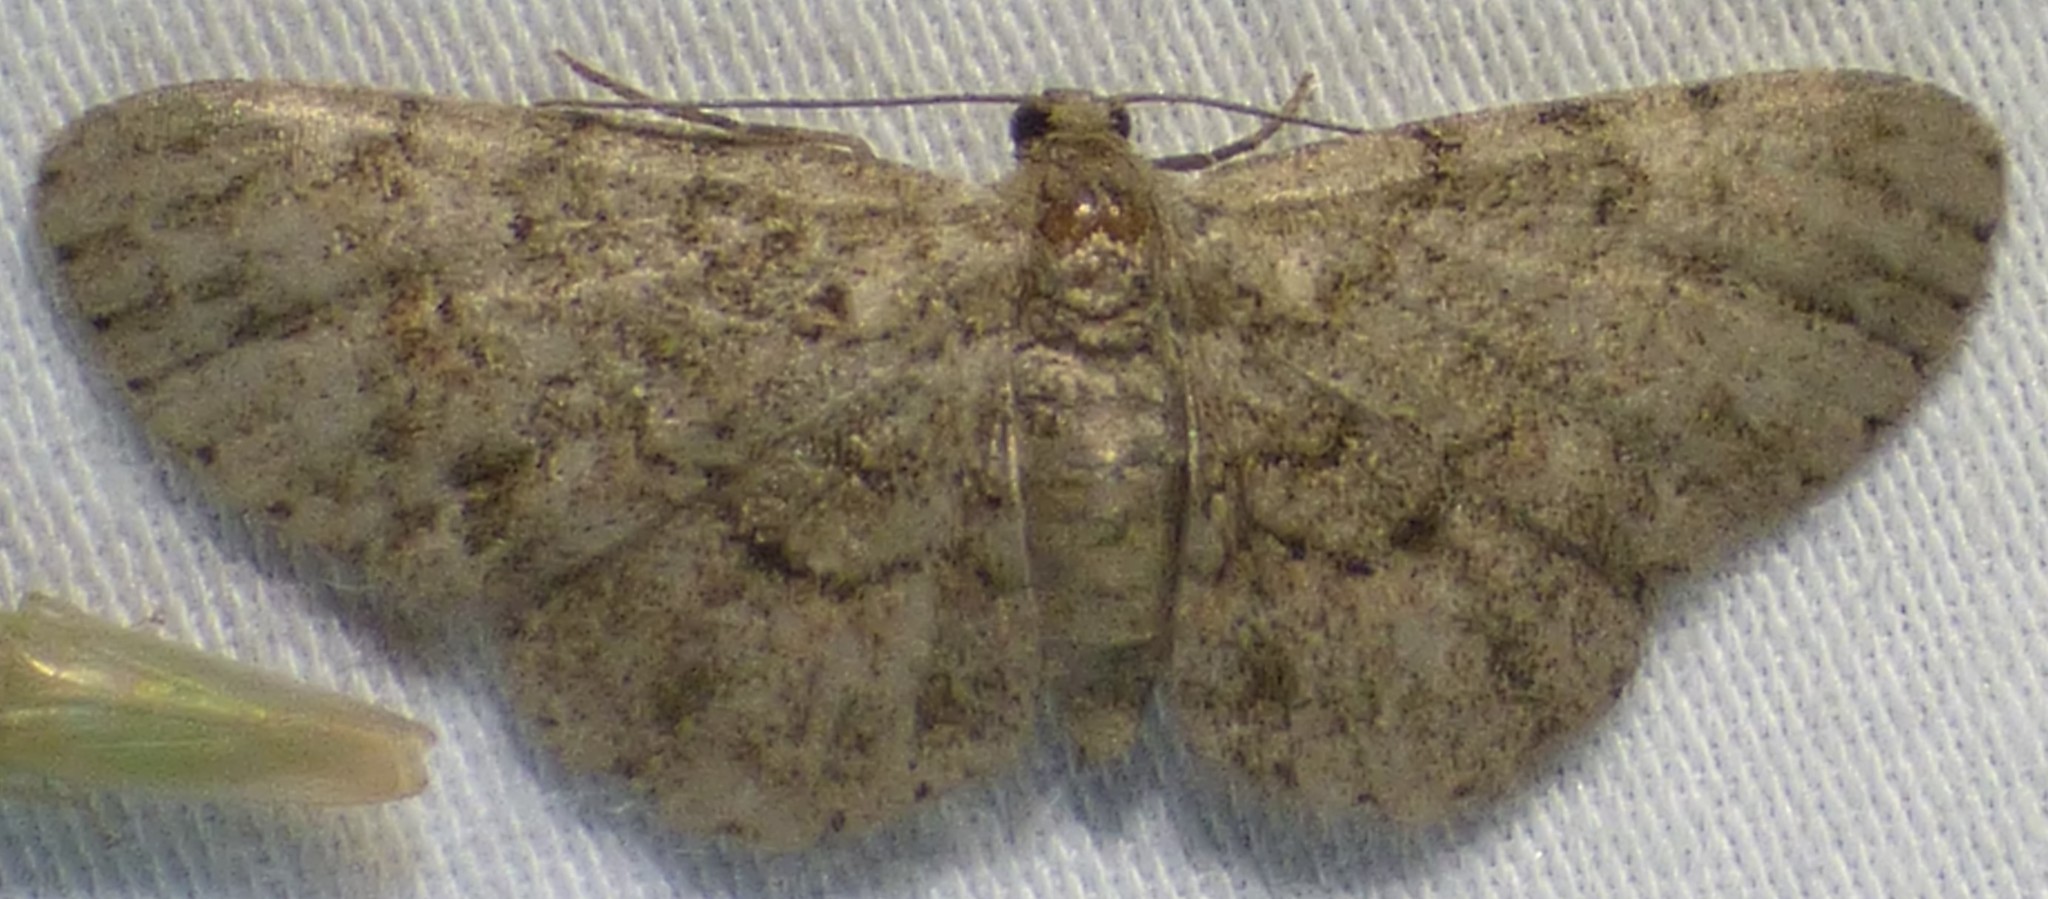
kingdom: Animalia
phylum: Arthropoda
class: Insecta
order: Lepidoptera
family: Geometridae
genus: Glenoides
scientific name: Glenoides texanaria
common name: Texas gray
